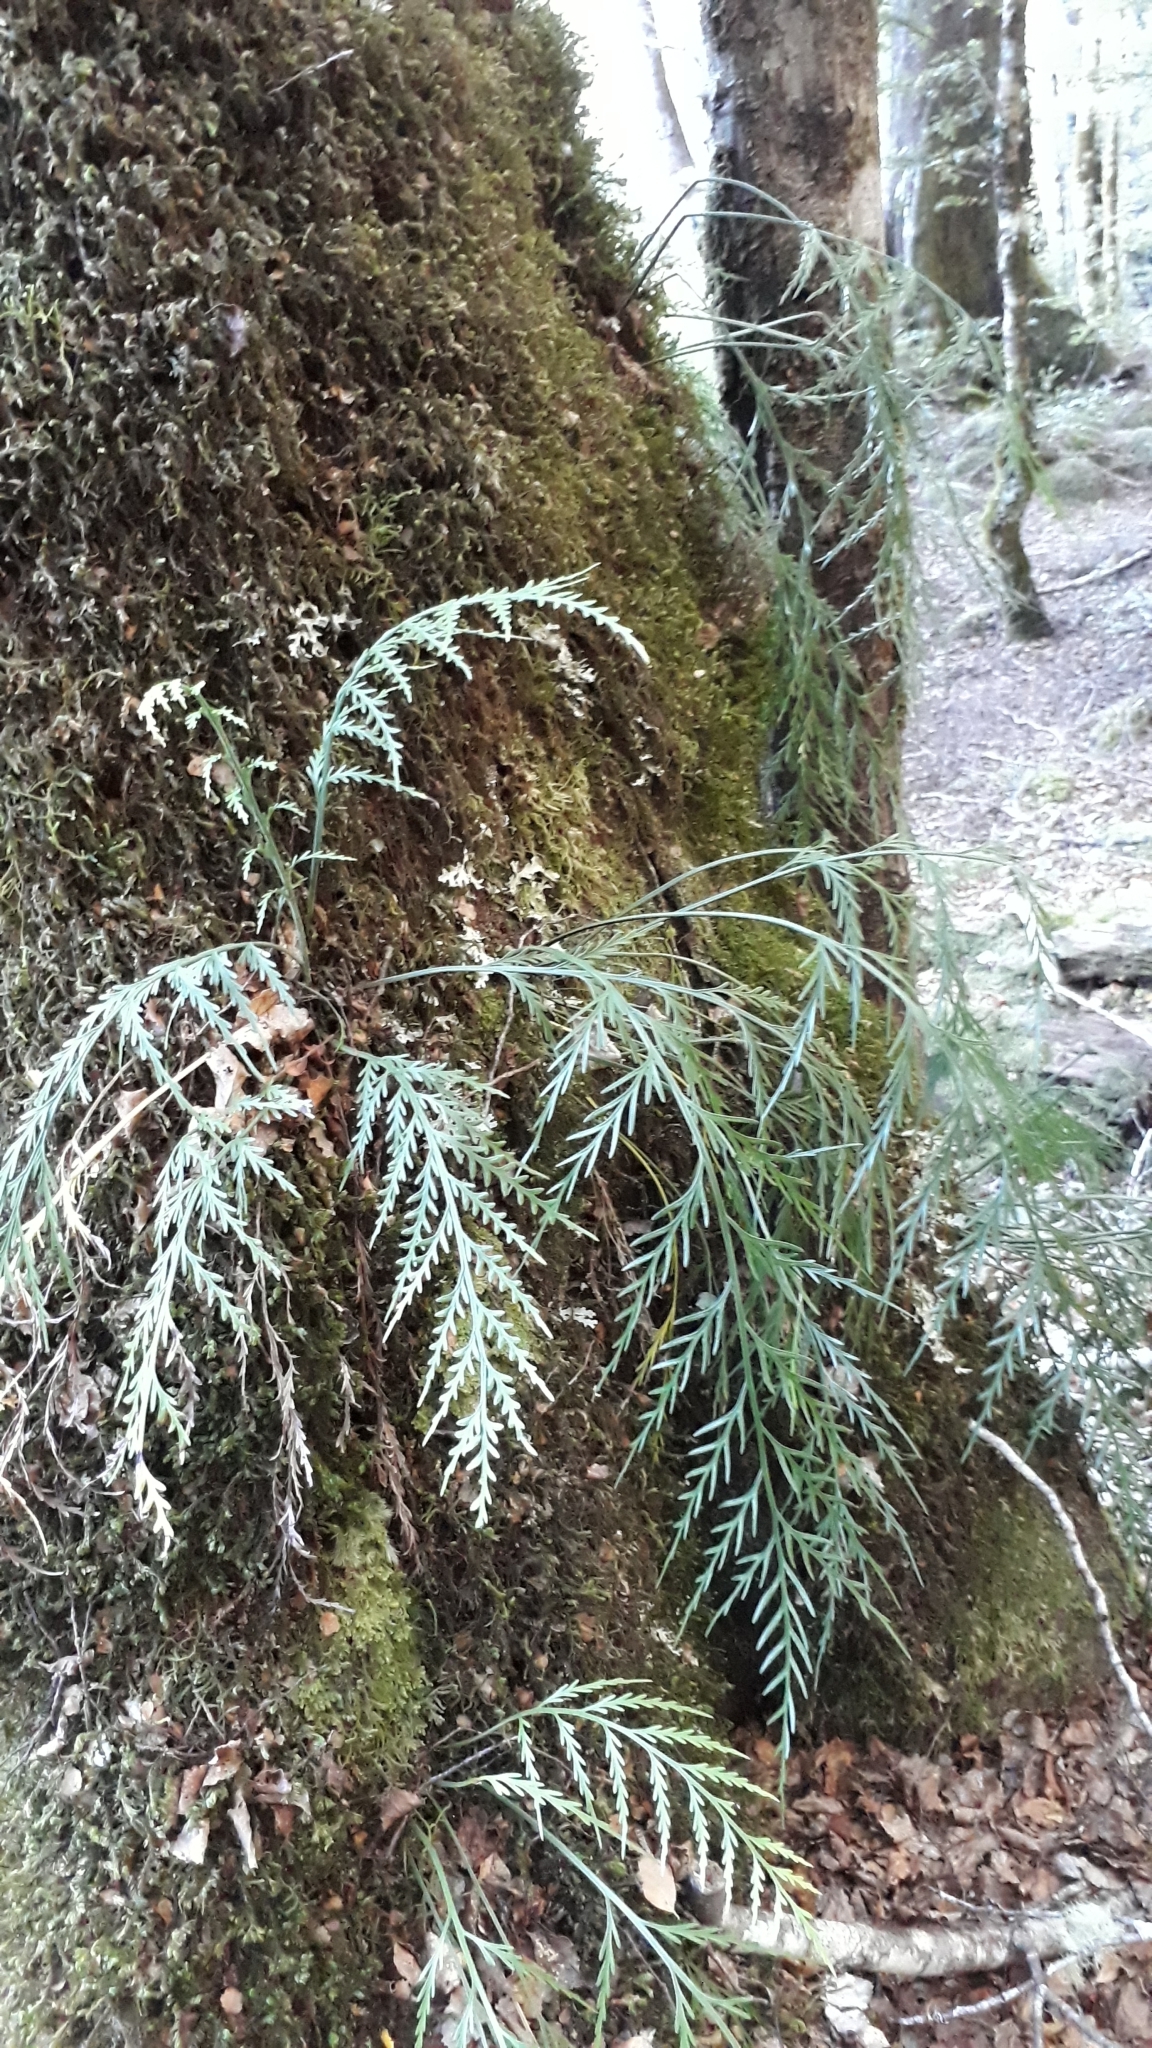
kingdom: Plantae
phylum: Tracheophyta
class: Polypodiopsida
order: Polypodiales
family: Aspleniaceae
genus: Asplenium
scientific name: Asplenium flaccidum
